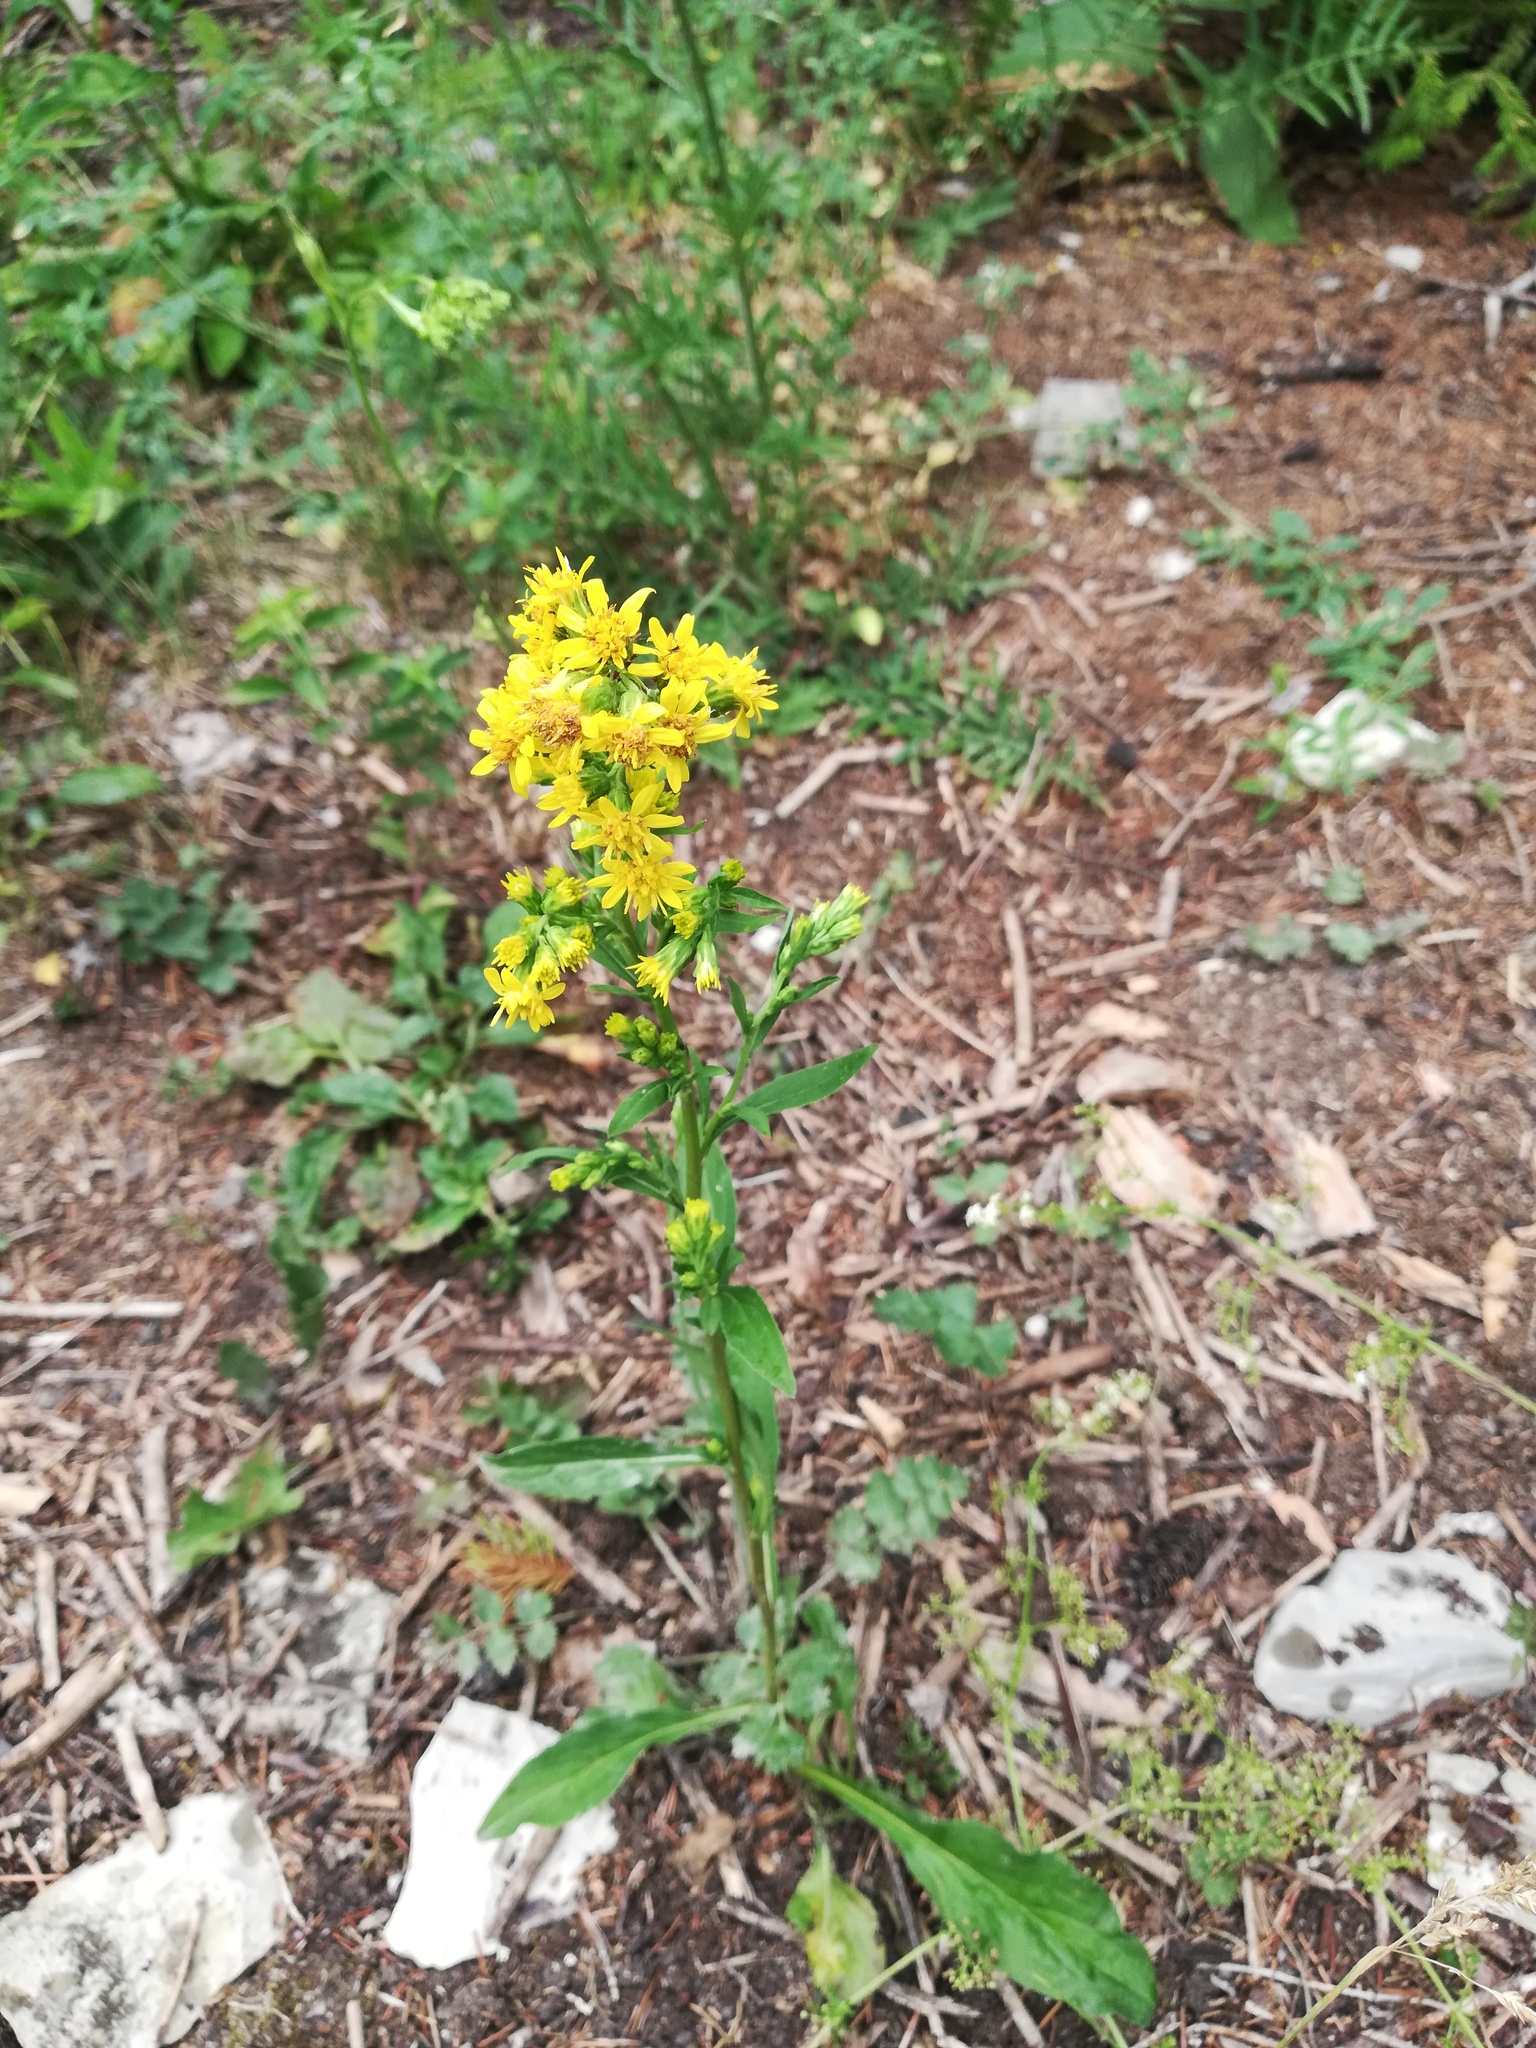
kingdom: Plantae
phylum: Tracheophyta
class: Magnoliopsida
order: Asterales
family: Asteraceae
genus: Solidago
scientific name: Solidago virgaurea
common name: Goldenrod
